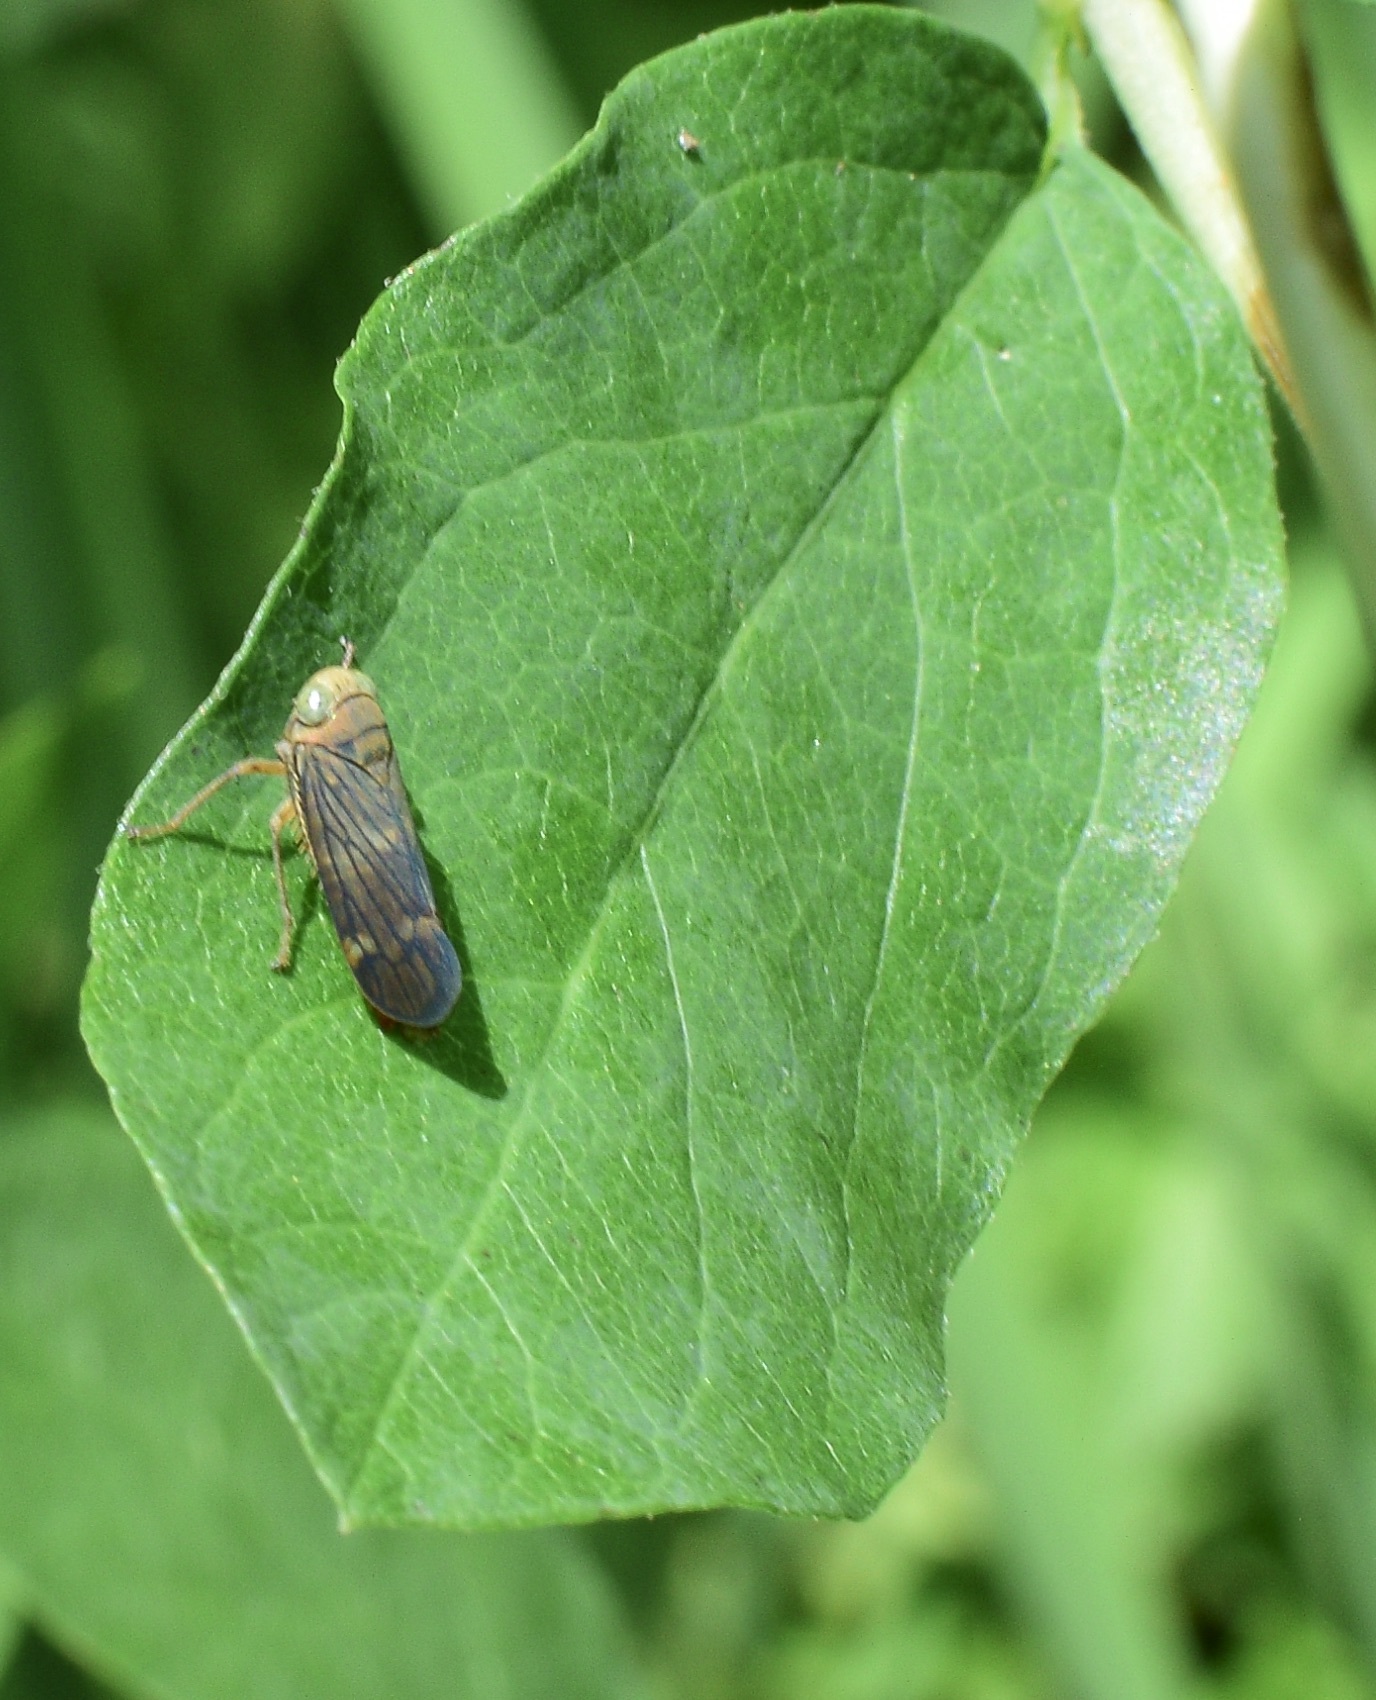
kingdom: Animalia
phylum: Arthropoda
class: Insecta
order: Hemiptera
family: Cicadellidae
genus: Jikradia
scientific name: Jikradia olitoria
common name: Coppery leafhopper
